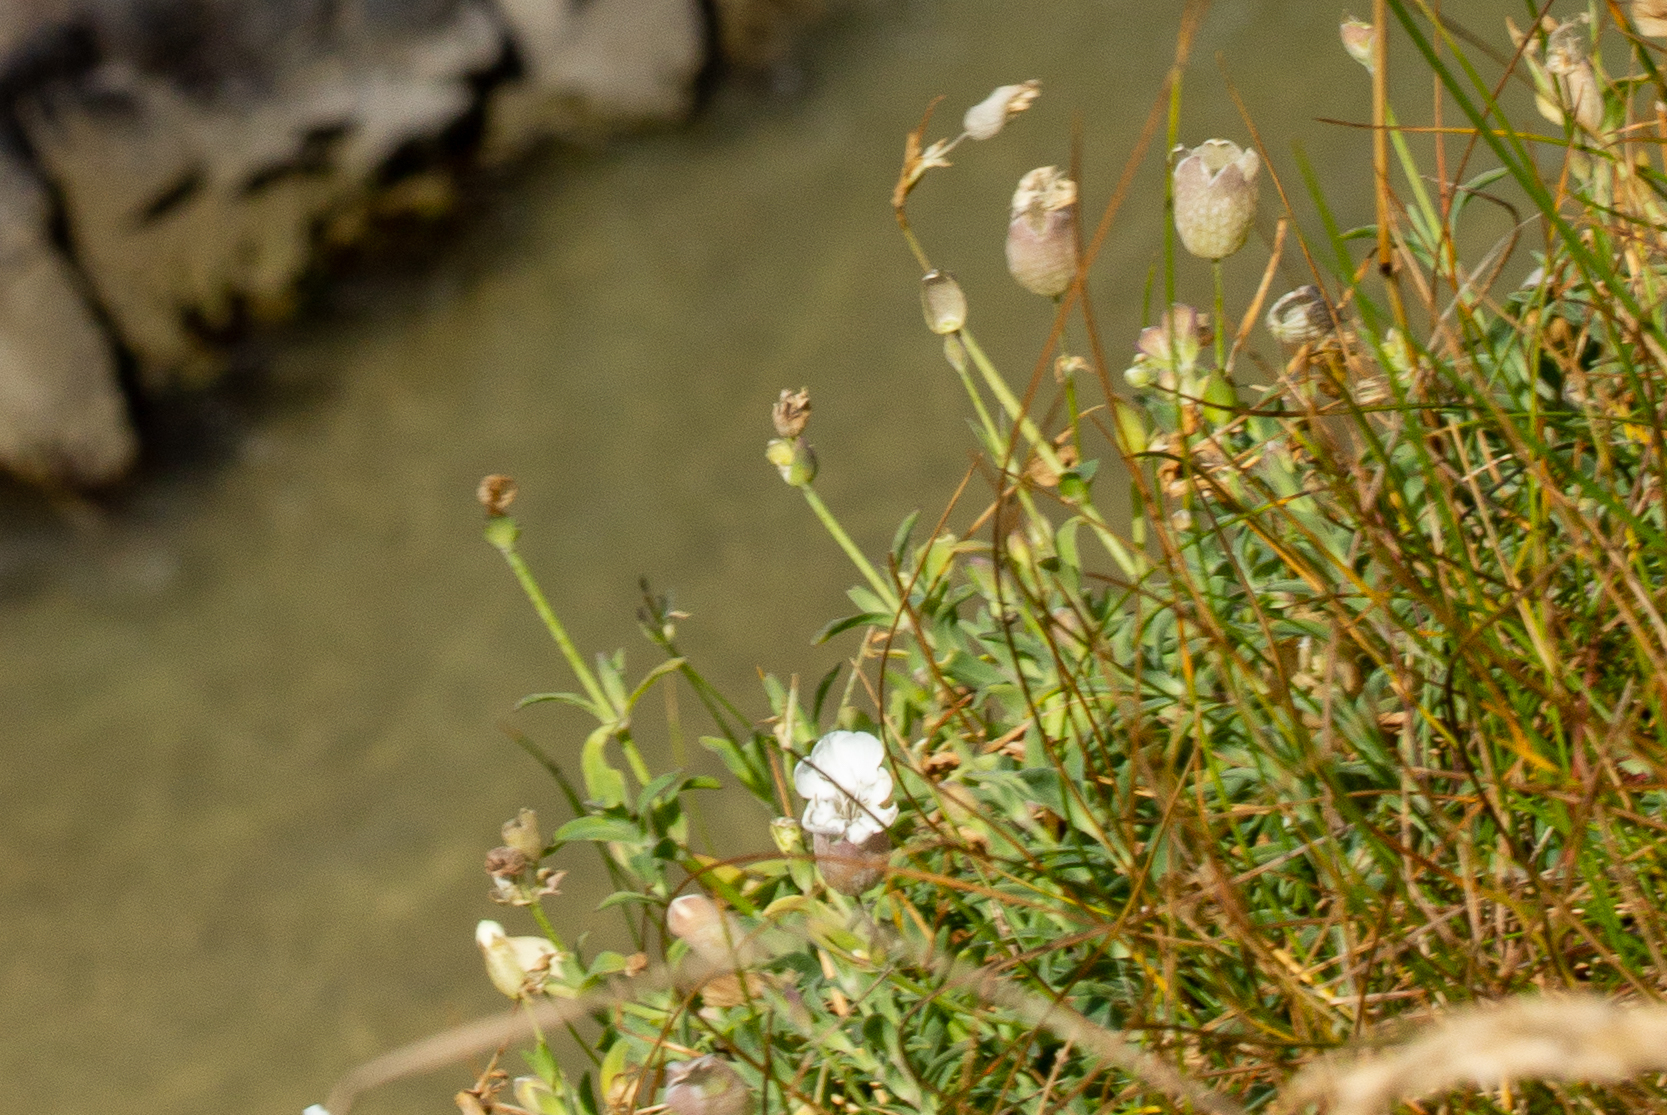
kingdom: Plantae
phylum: Tracheophyta
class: Magnoliopsida
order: Caryophyllales
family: Caryophyllaceae
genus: Silene
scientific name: Silene uniflora
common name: Sea campion
